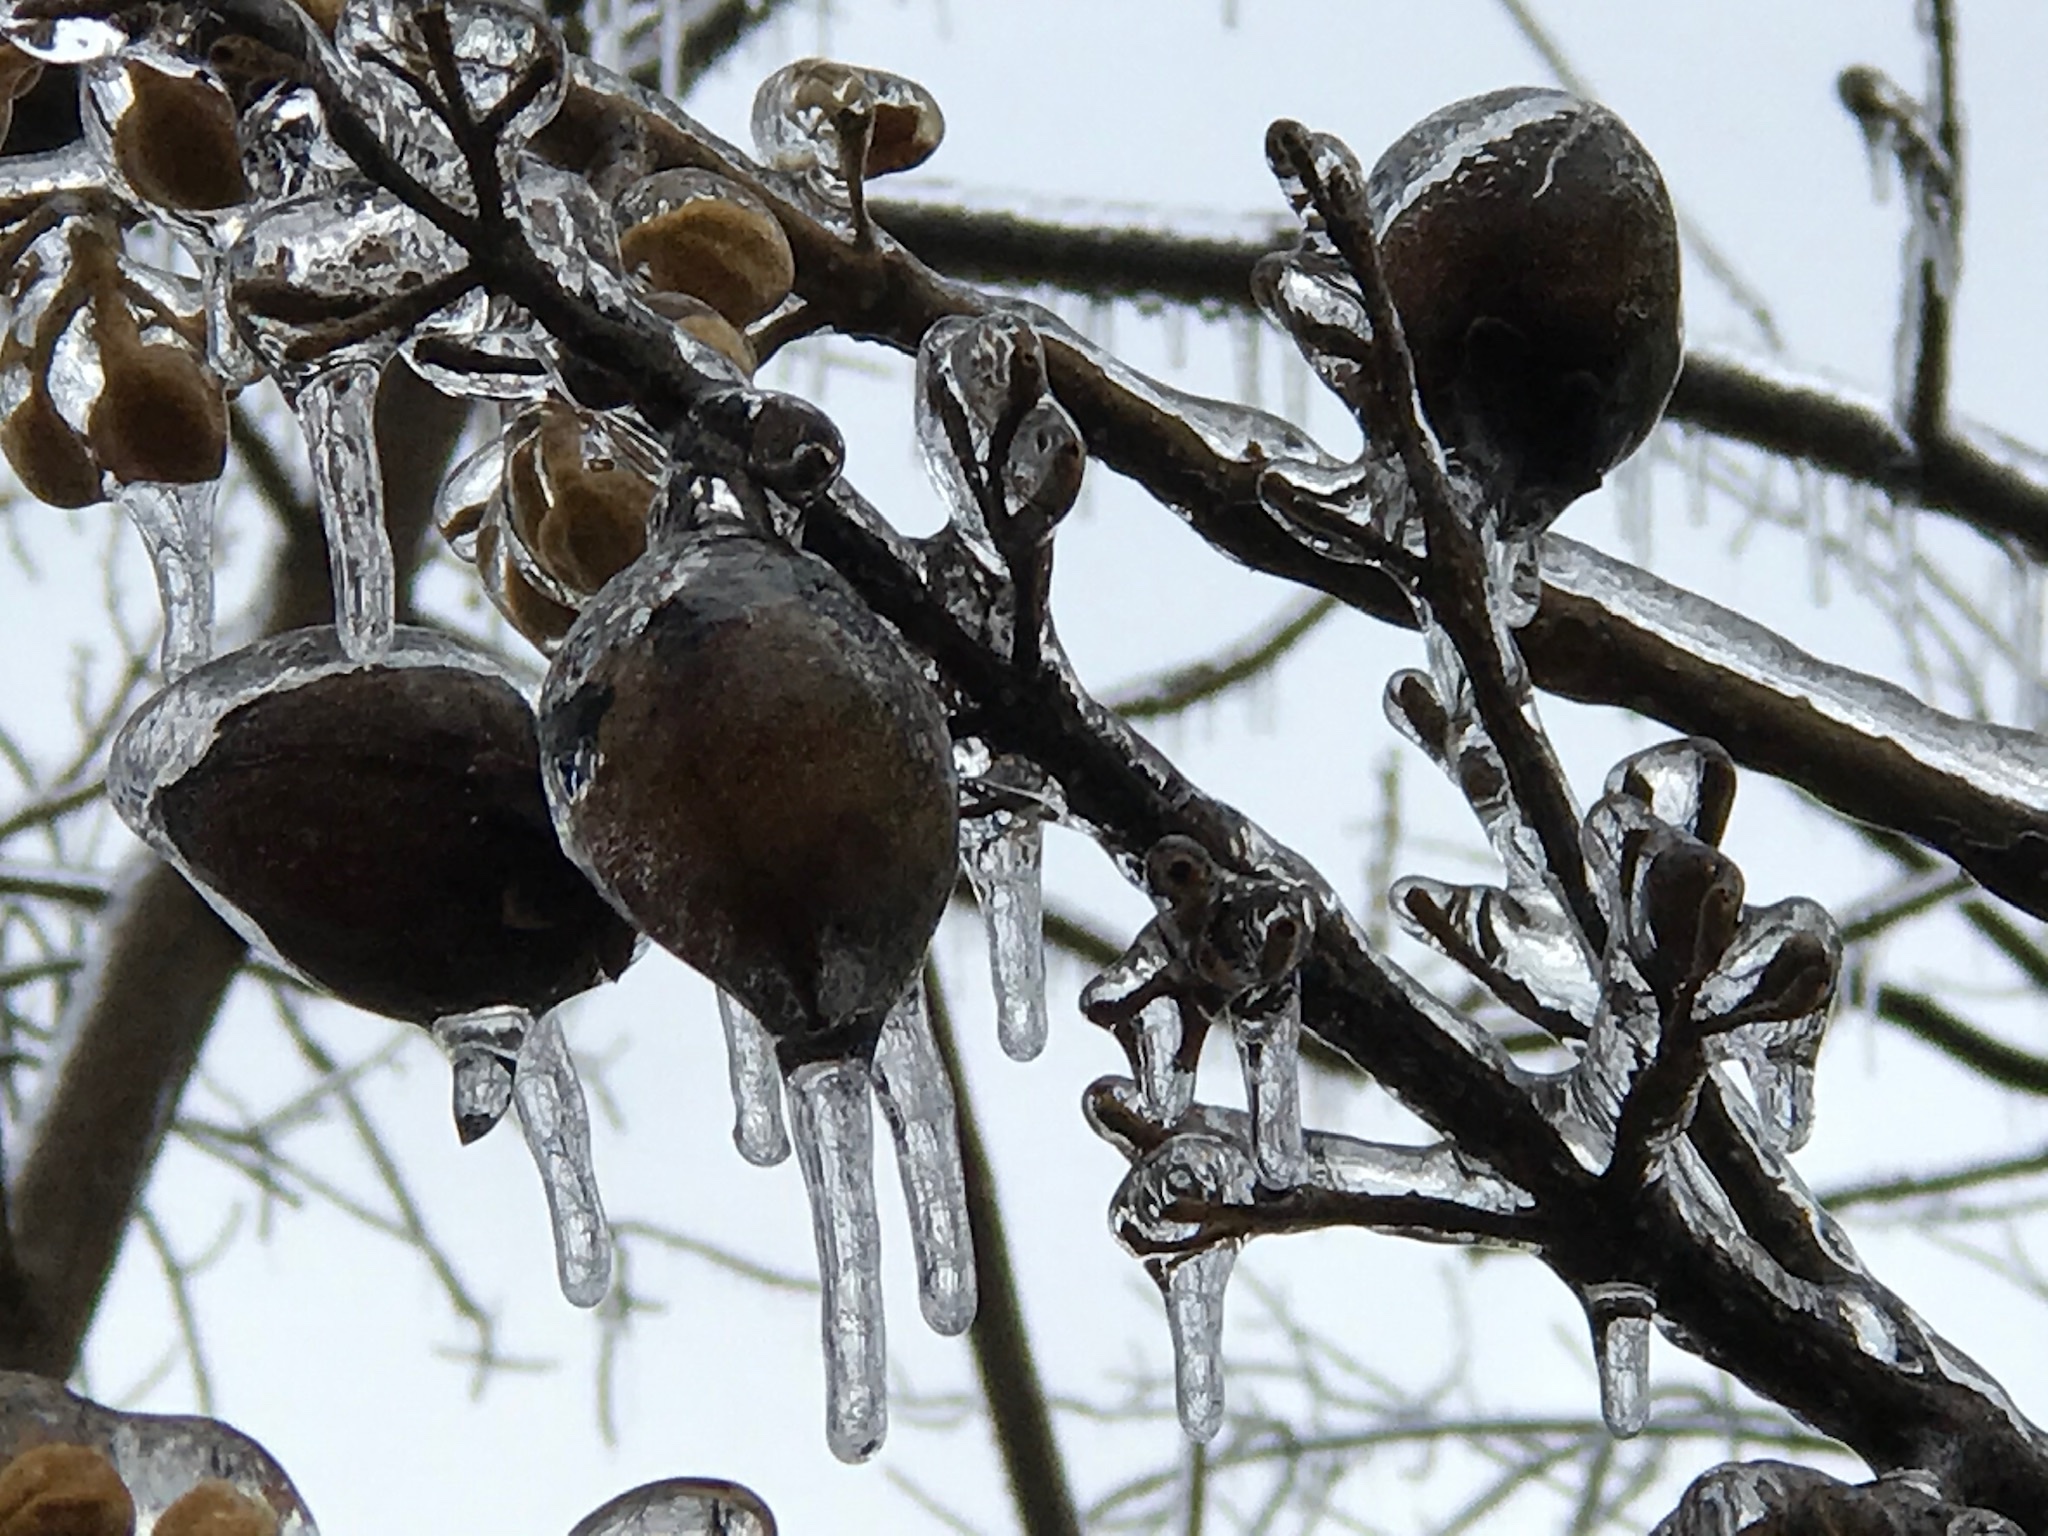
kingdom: Plantae
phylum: Tracheophyta
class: Magnoliopsida
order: Lamiales
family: Paulowniaceae
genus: Paulownia
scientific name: Paulownia tomentosa
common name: Foxglove-tree
